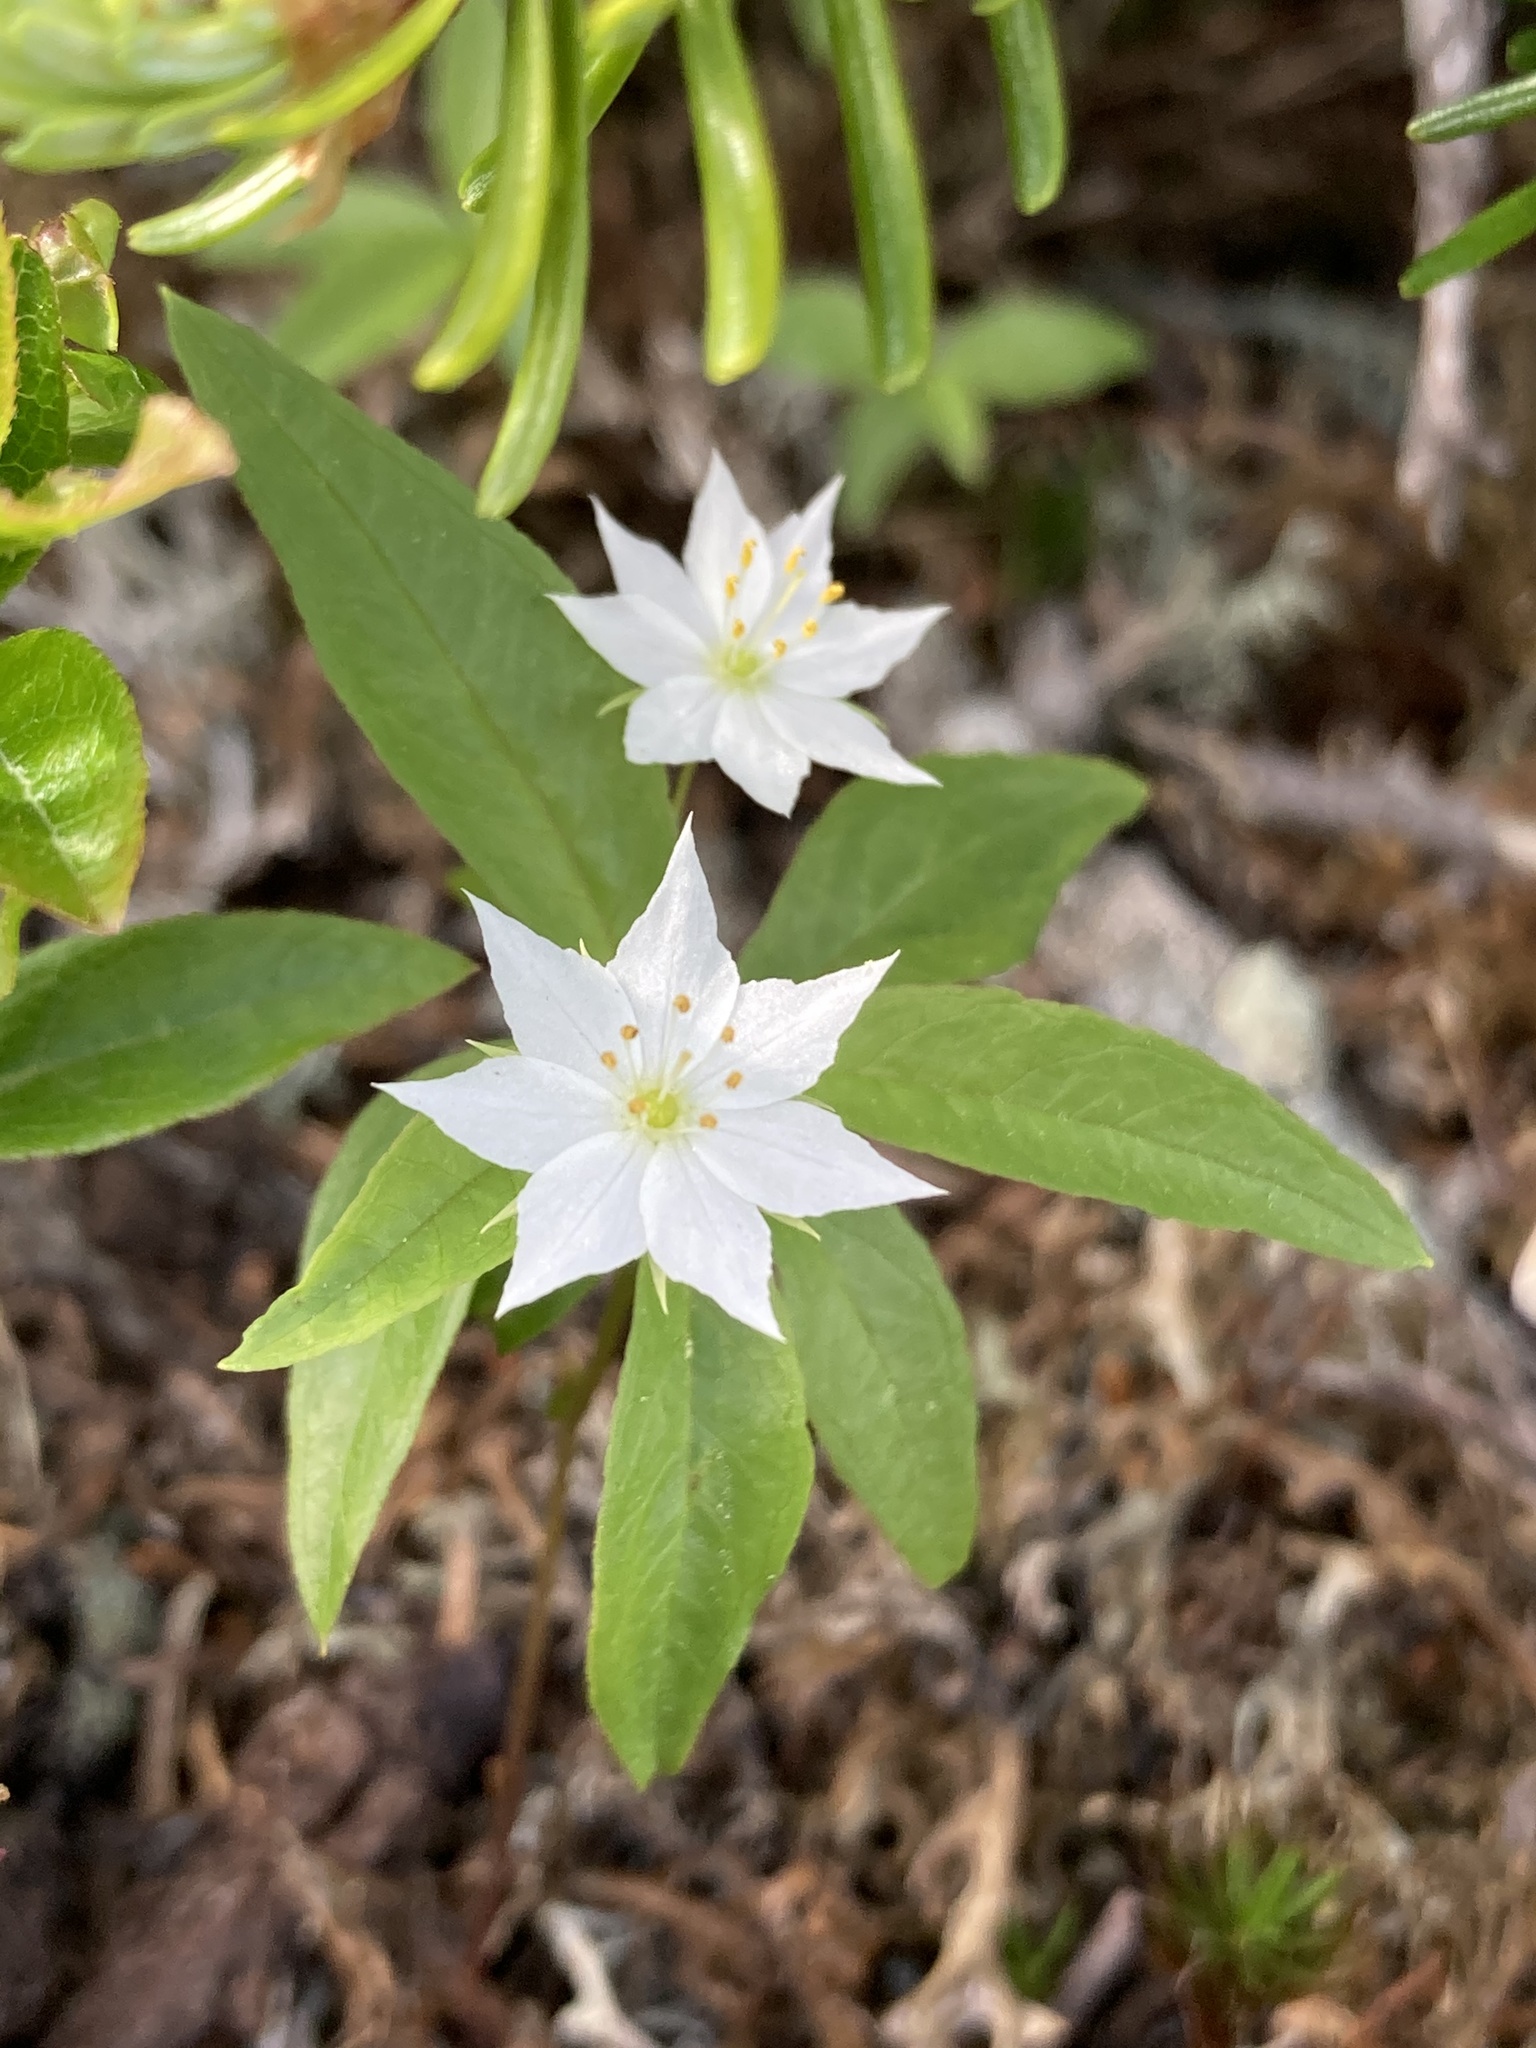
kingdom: Plantae
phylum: Tracheophyta
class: Magnoliopsida
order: Ericales
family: Primulaceae
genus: Lysimachia
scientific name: Lysimachia borealis
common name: American starflower
